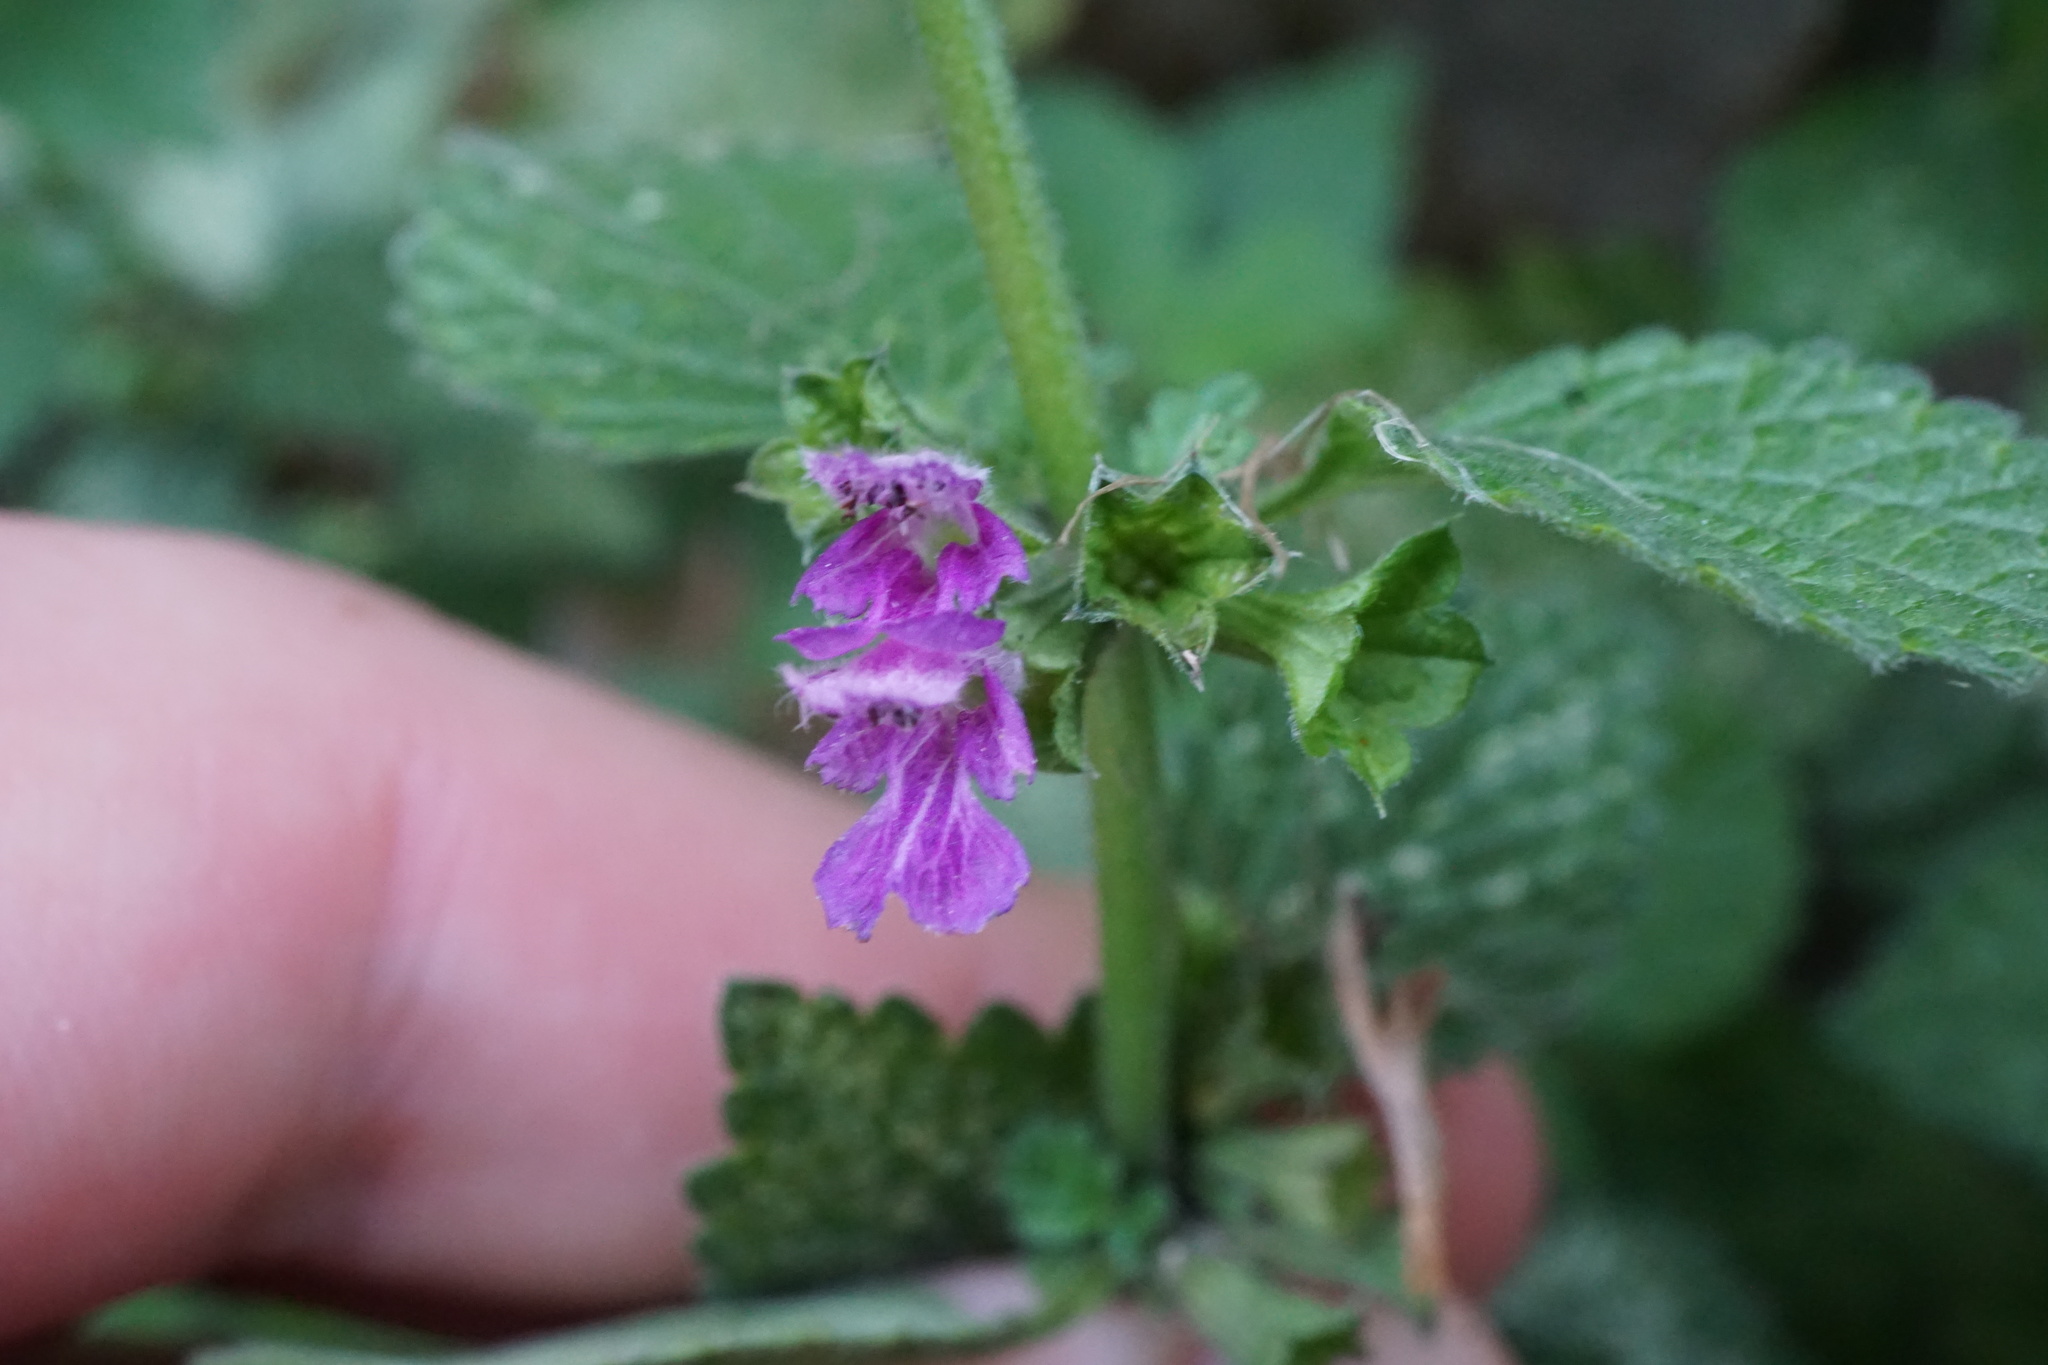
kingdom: Plantae
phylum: Tracheophyta
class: Magnoliopsida
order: Lamiales
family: Lamiaceae
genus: Ballota
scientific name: Ballota nigra
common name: Black horehound
